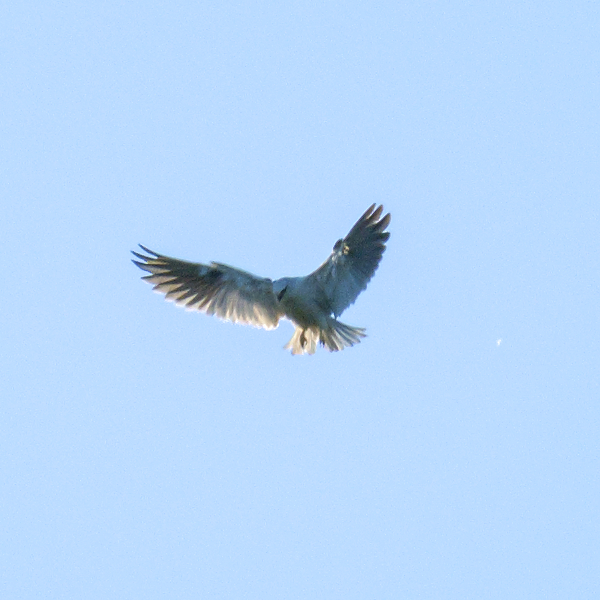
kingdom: Animalia
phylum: Chordata
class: Aves
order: Accipitriformes
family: Accipitridae
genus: Elanus
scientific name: Elanus axillaris
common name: Black-shouldered kite
